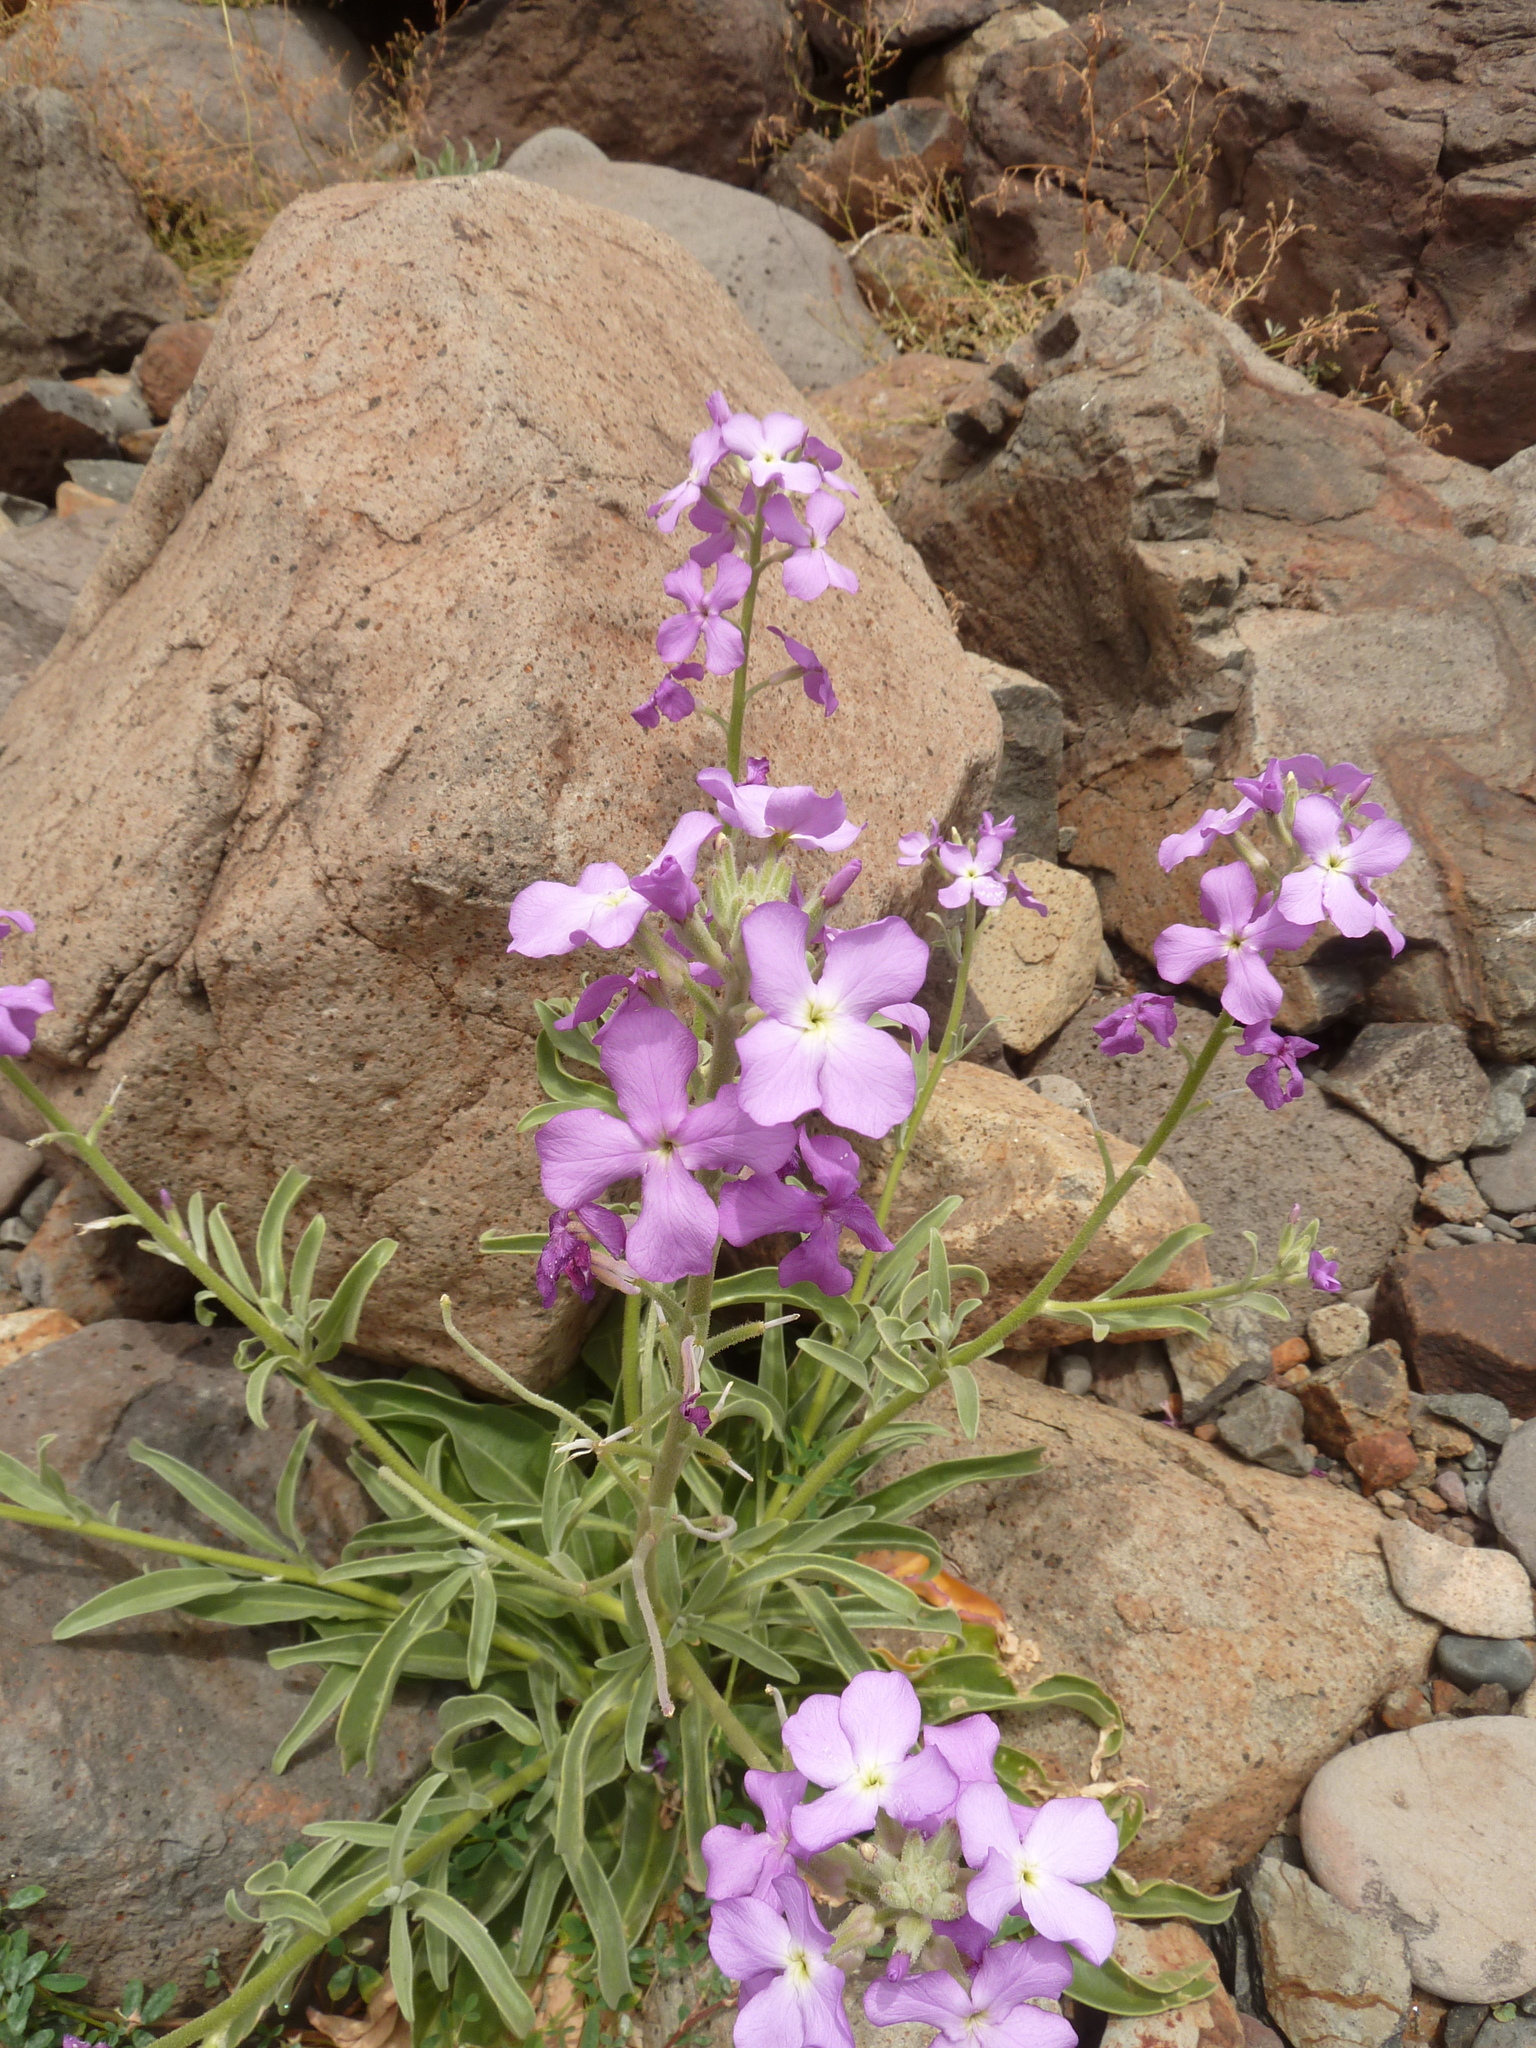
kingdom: Plantae
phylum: Tracheophyta
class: Magnoliopsida
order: Brassicales
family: Brassicaceae
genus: Matthiola
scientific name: Matthiola maderensis
